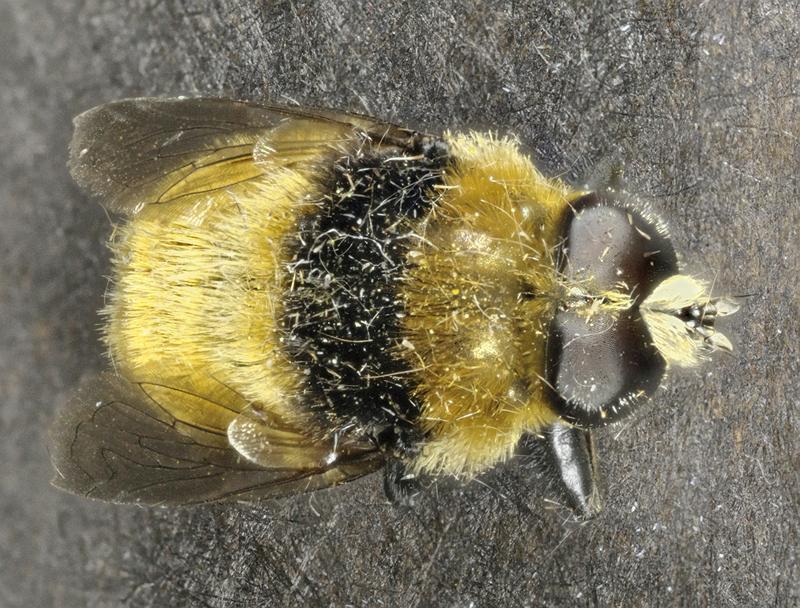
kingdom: Animalia
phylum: Arthropoda
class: Insecta
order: Diptera
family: Syrphidae
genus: Merodon
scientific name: Merodon equestris
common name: Greater bulb-fly
